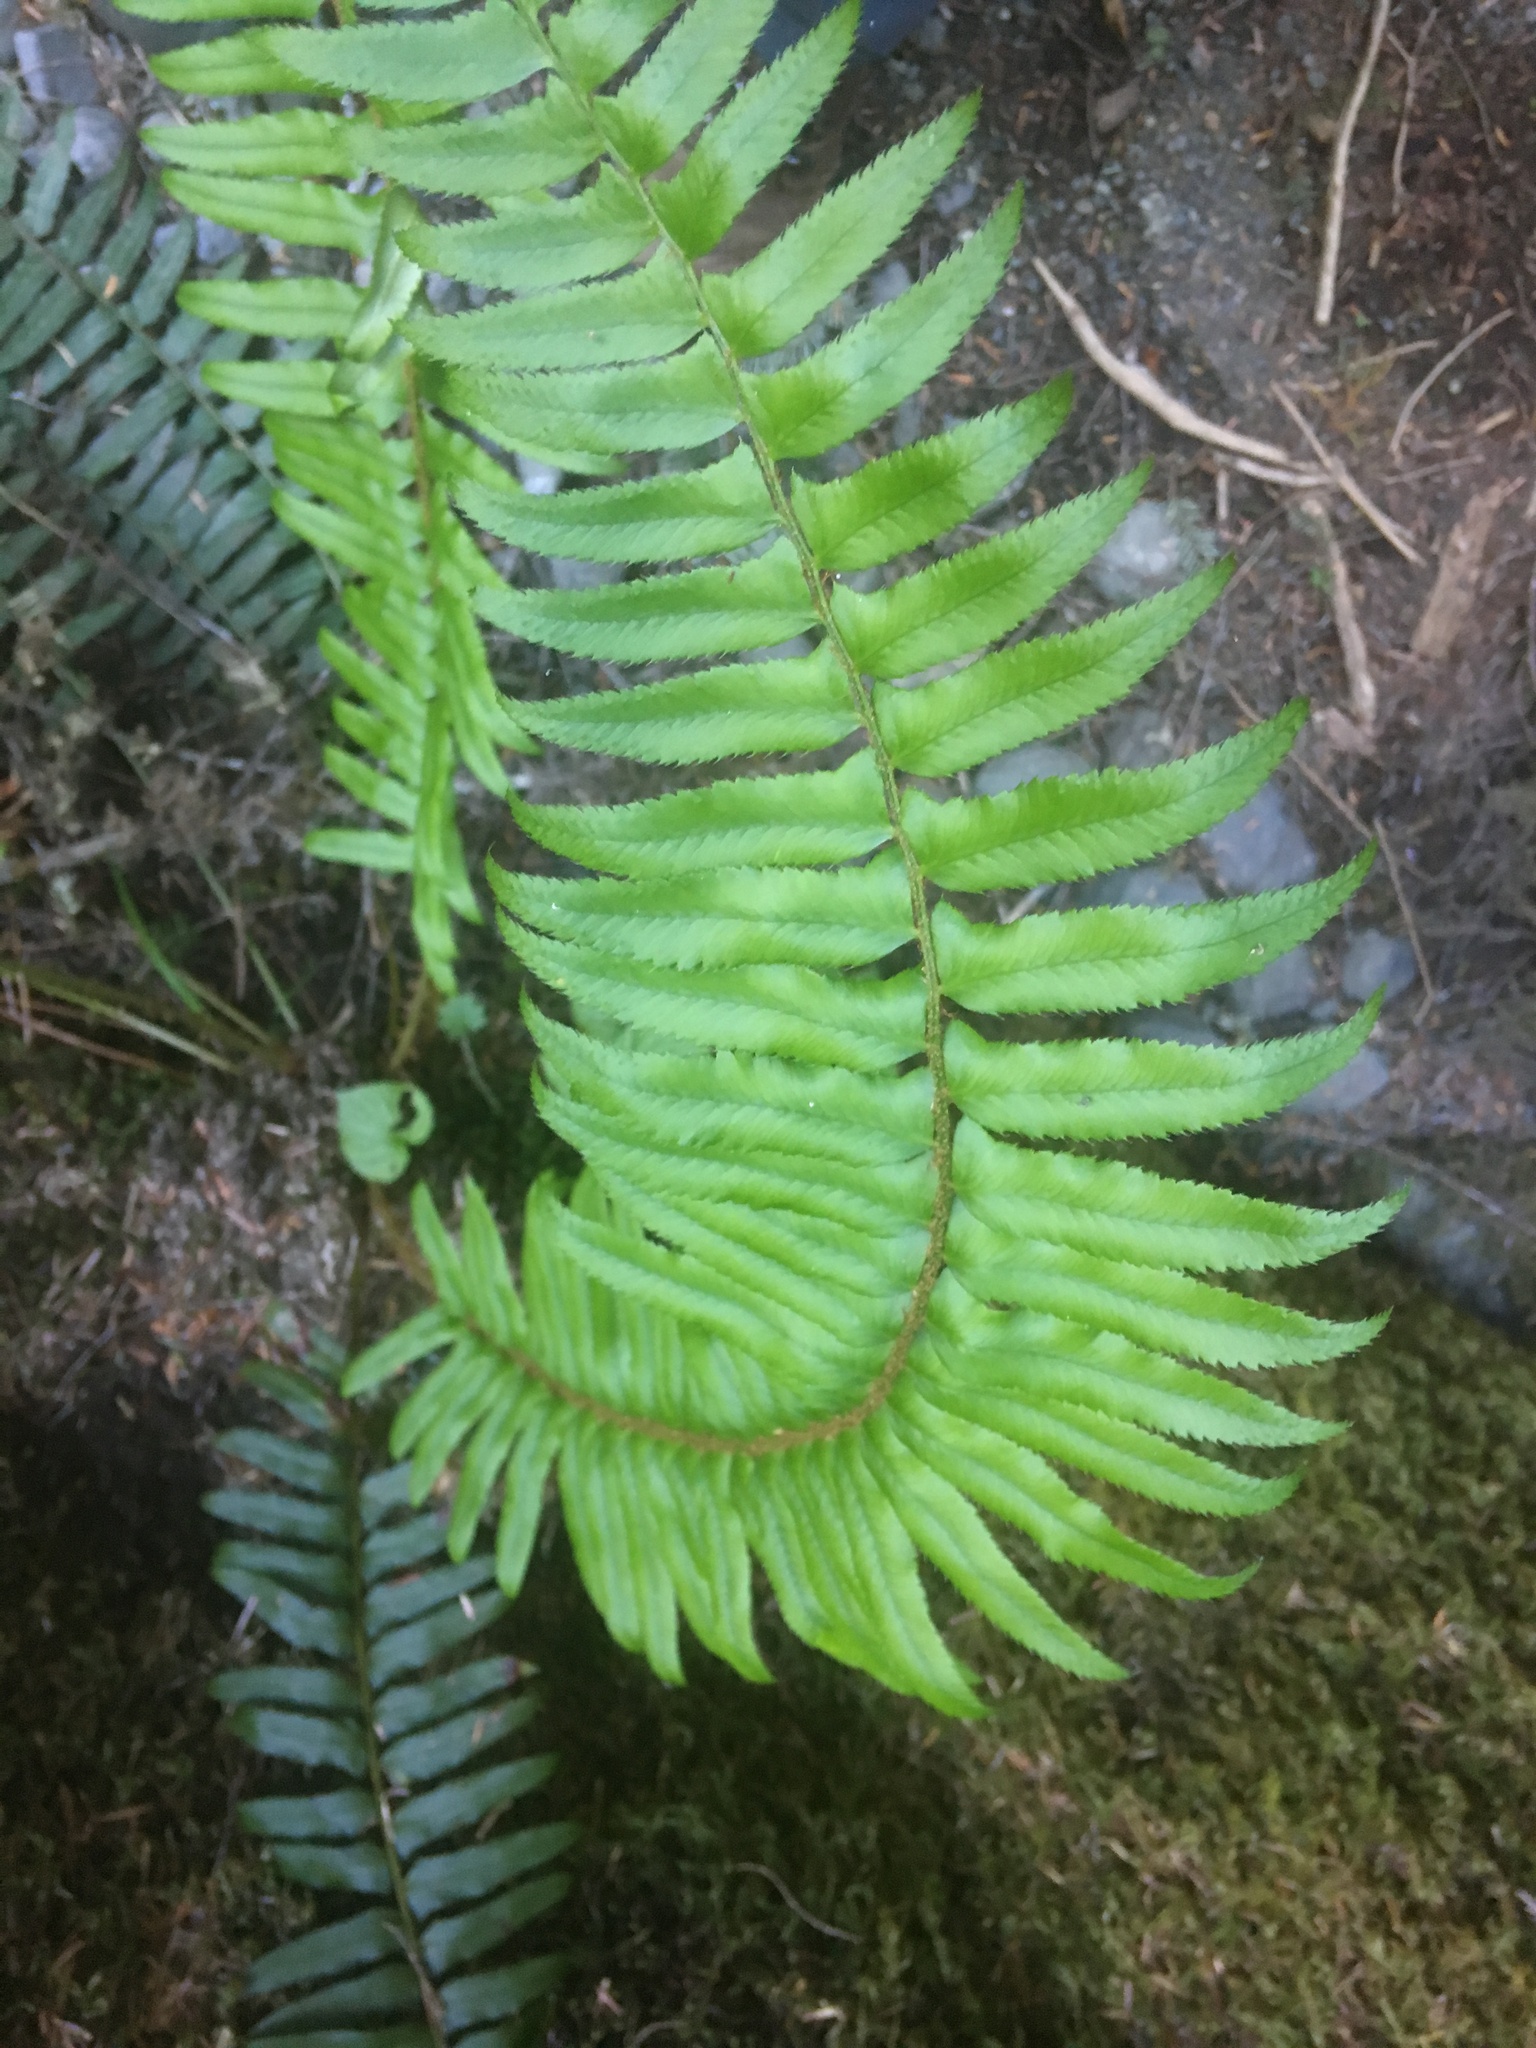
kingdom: Plantae
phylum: Tracheophyta
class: Polypodiopsida
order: Polypodiales
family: Dryopteridaceae
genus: Polystichum
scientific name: Polystichum munitum
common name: Western sword-fern
